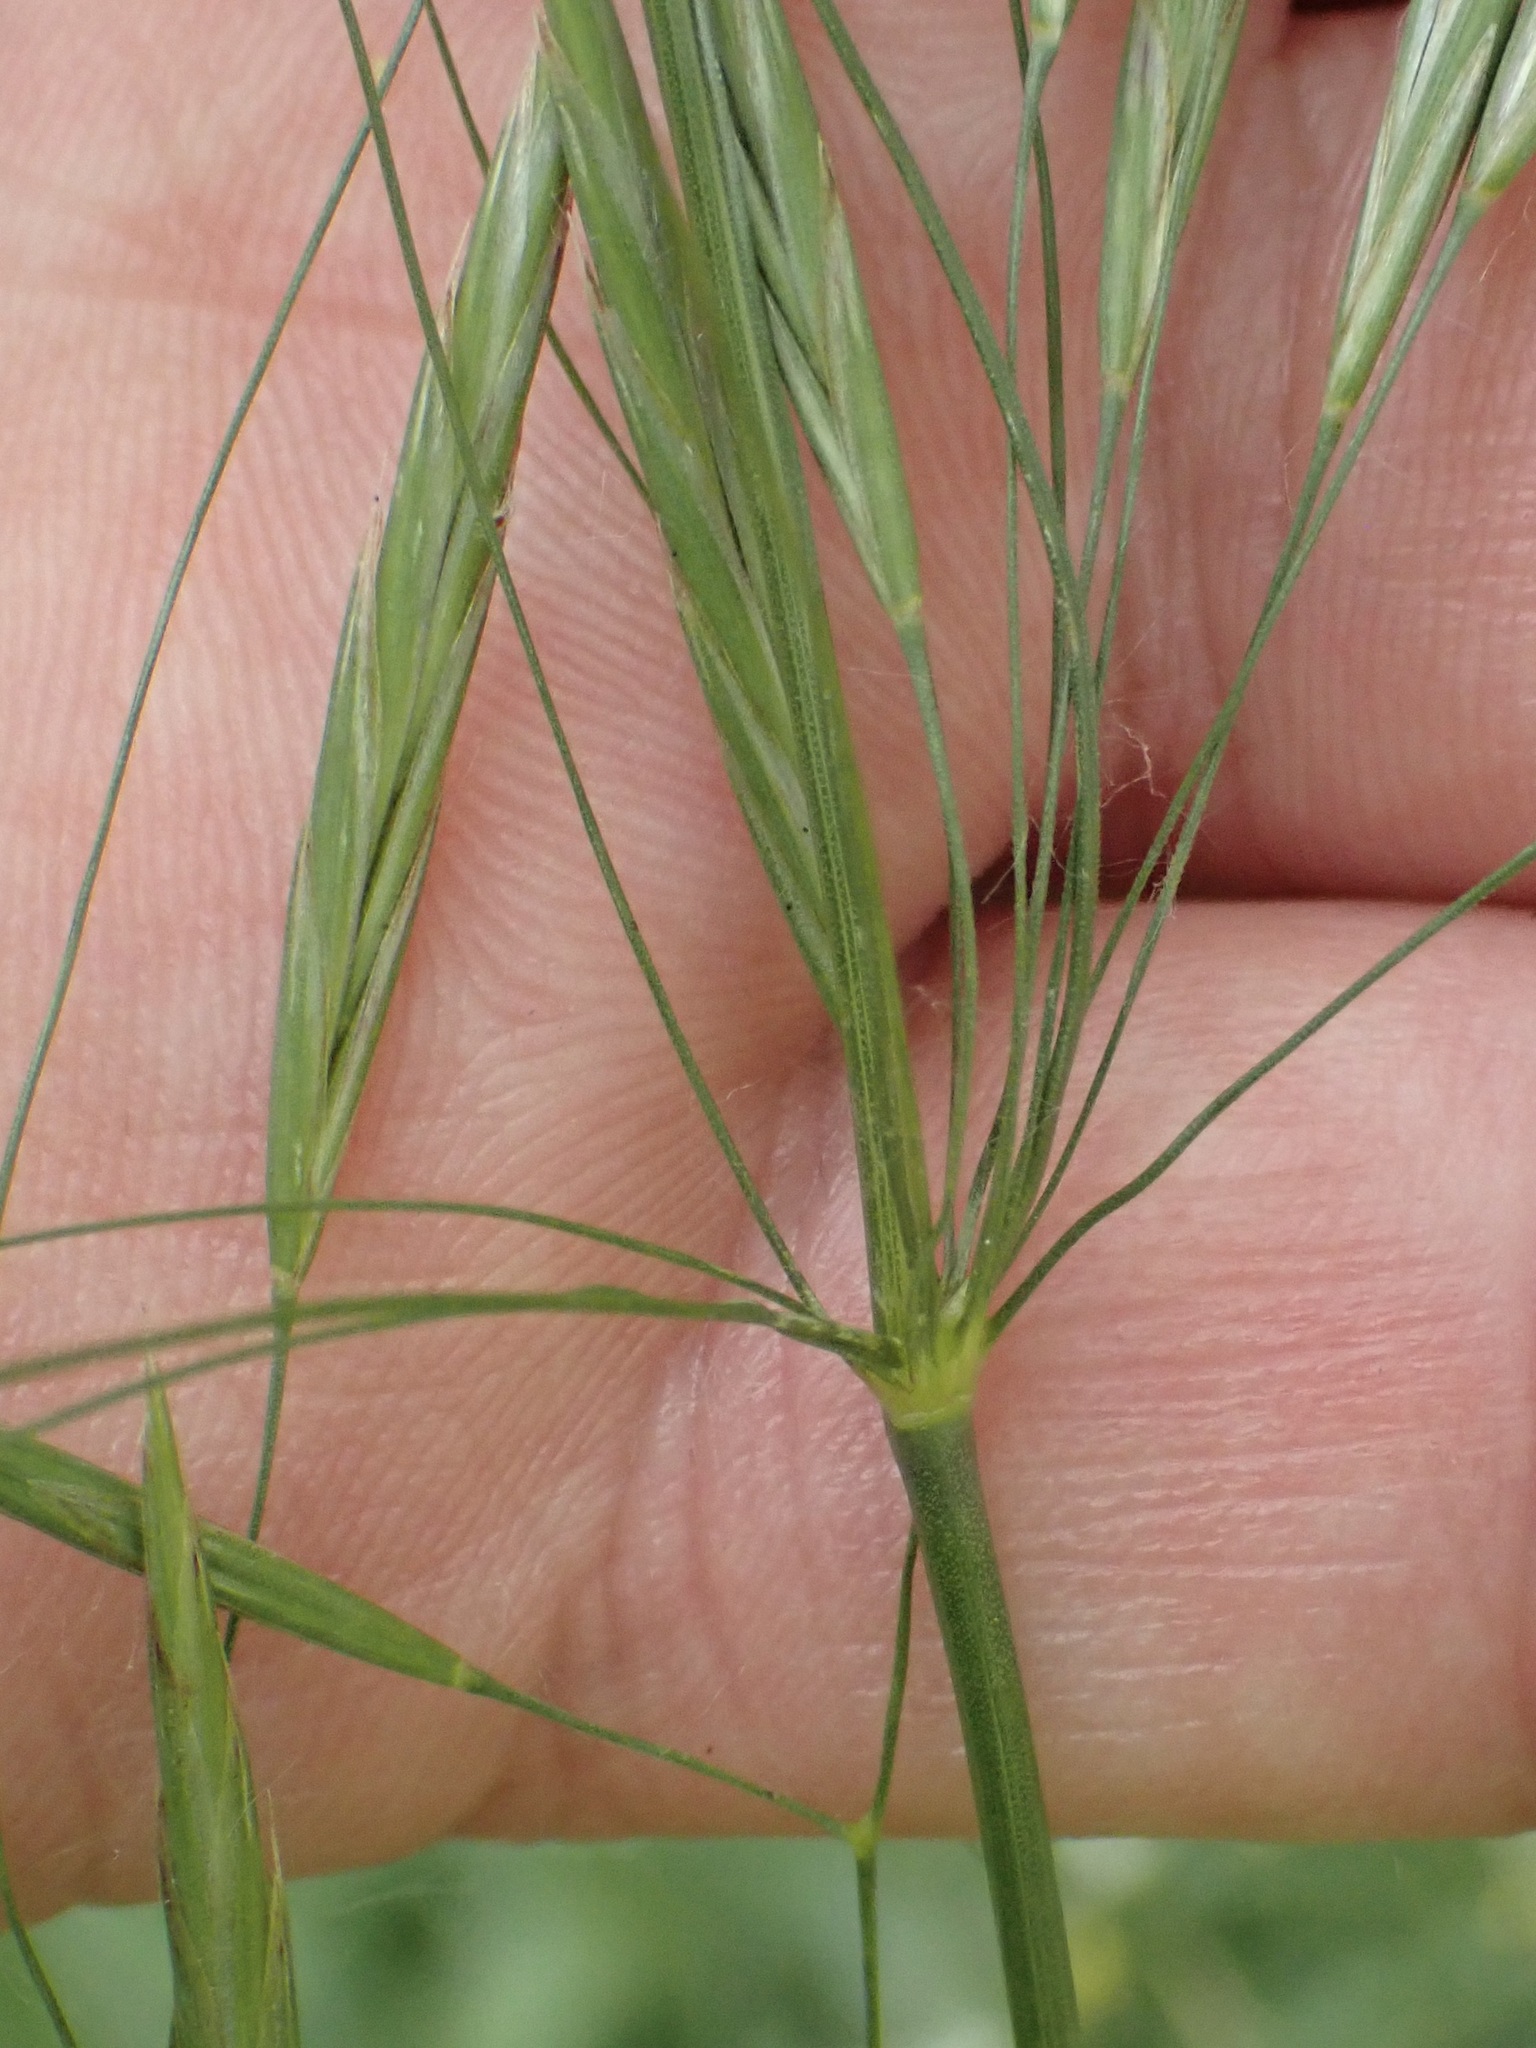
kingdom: Plantae
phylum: Tracheophyta
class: Liliopsida
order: Poales
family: Poaceae
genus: Bromus
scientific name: Bromus inermis
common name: Smooth brome
